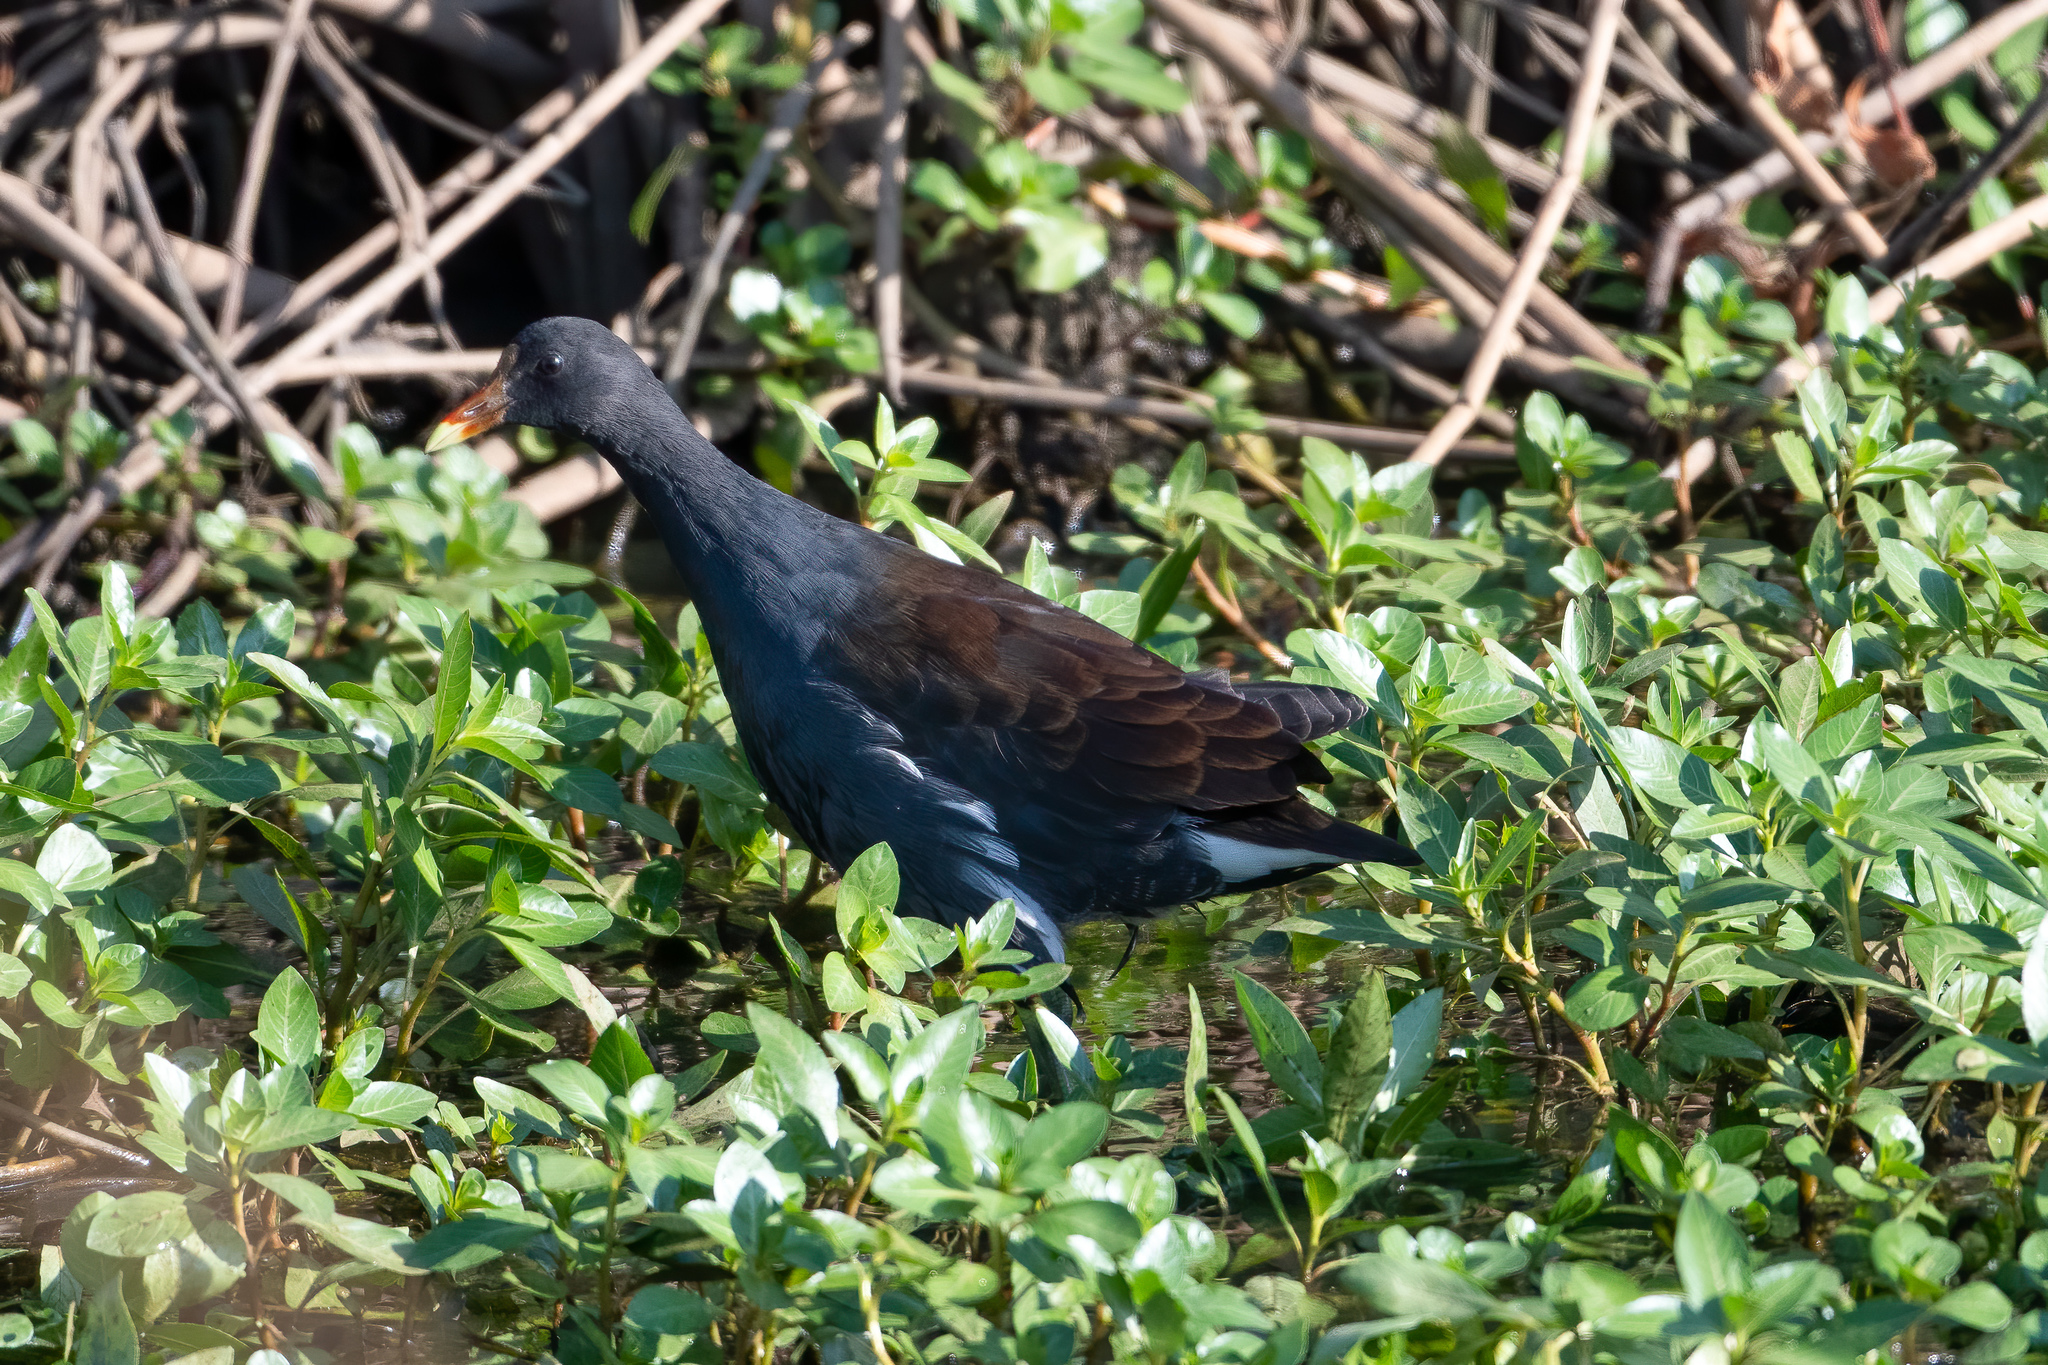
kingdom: Animalia
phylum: Chordata
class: Aves
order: Gruiformes
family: Rallidae
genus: Gallinula
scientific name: Gallinula chloropus
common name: Common moorhen
